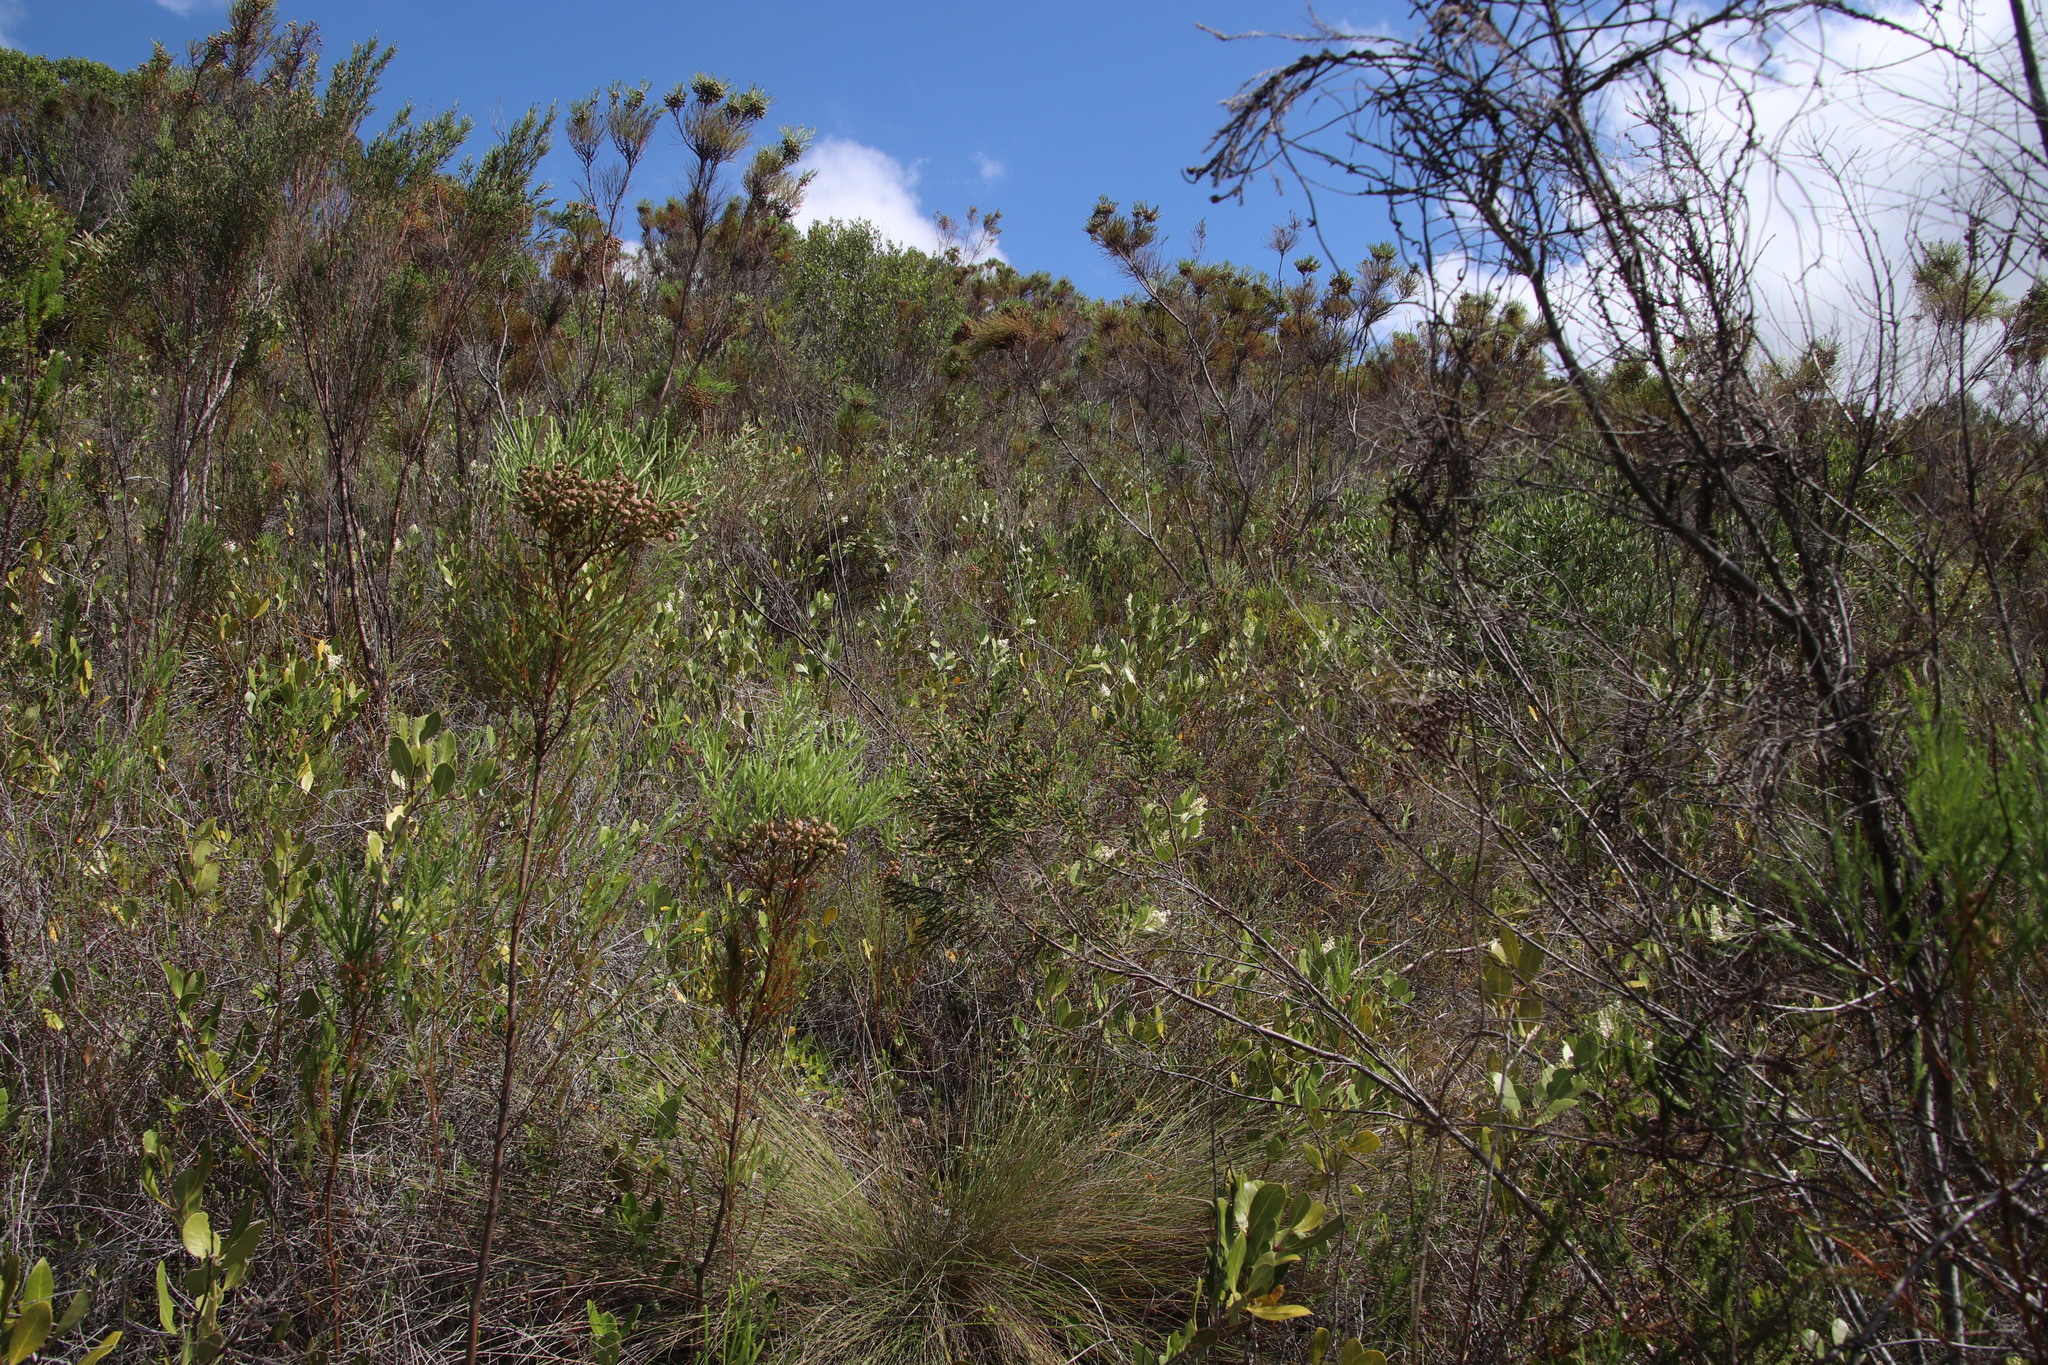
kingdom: Plantae
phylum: Tracheophyta
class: Magnoliopsida
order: Lamiales
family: Oleaceae
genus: Olea
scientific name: Olea capensis
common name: Black ironwood
